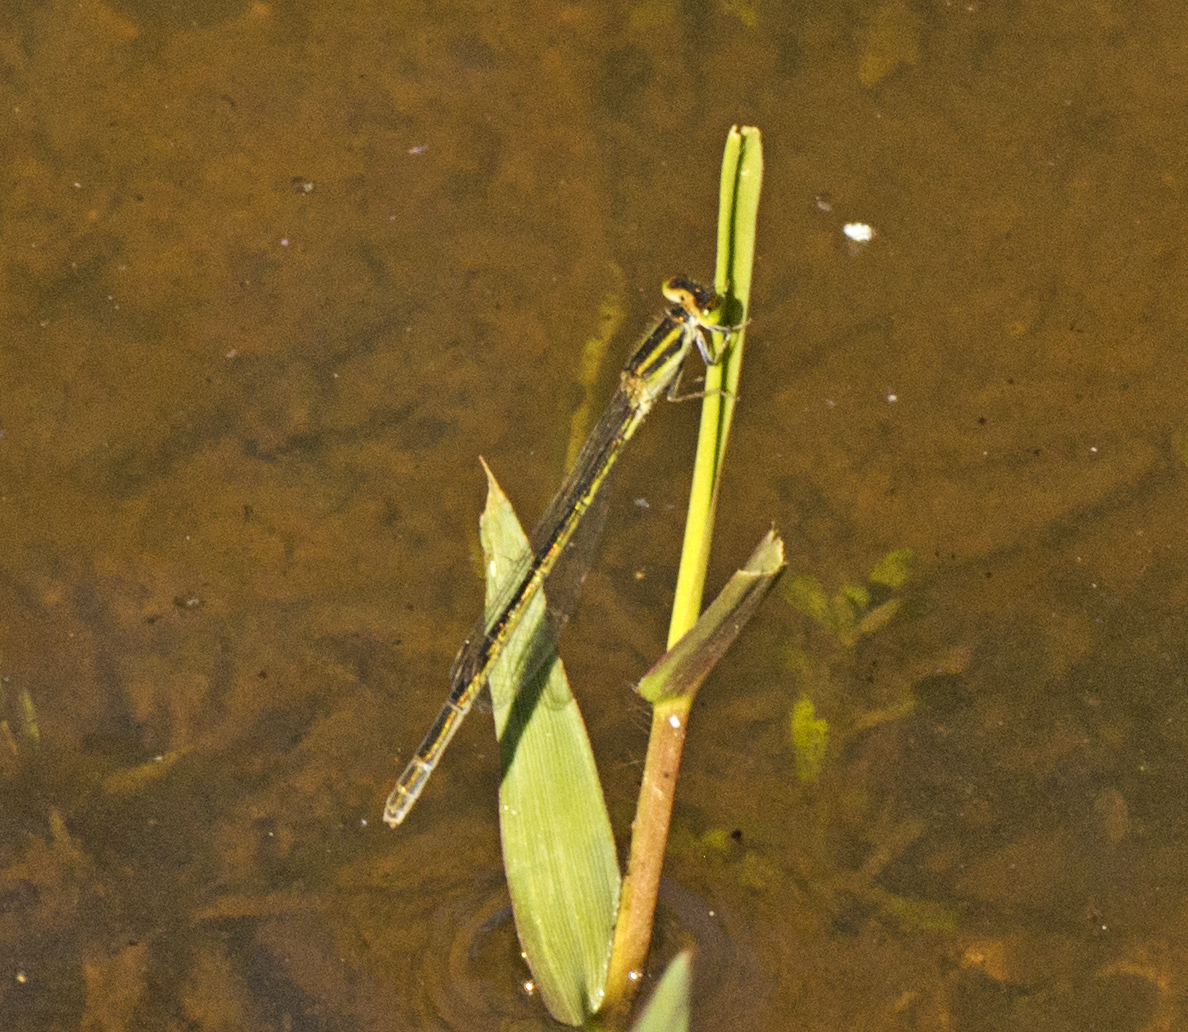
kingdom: Animalia
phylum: Arthropoda
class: Insecta
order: Odonata
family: Coenagrionidae
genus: Ischnura
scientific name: Ischnura aurora
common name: Gossamer damselfly
